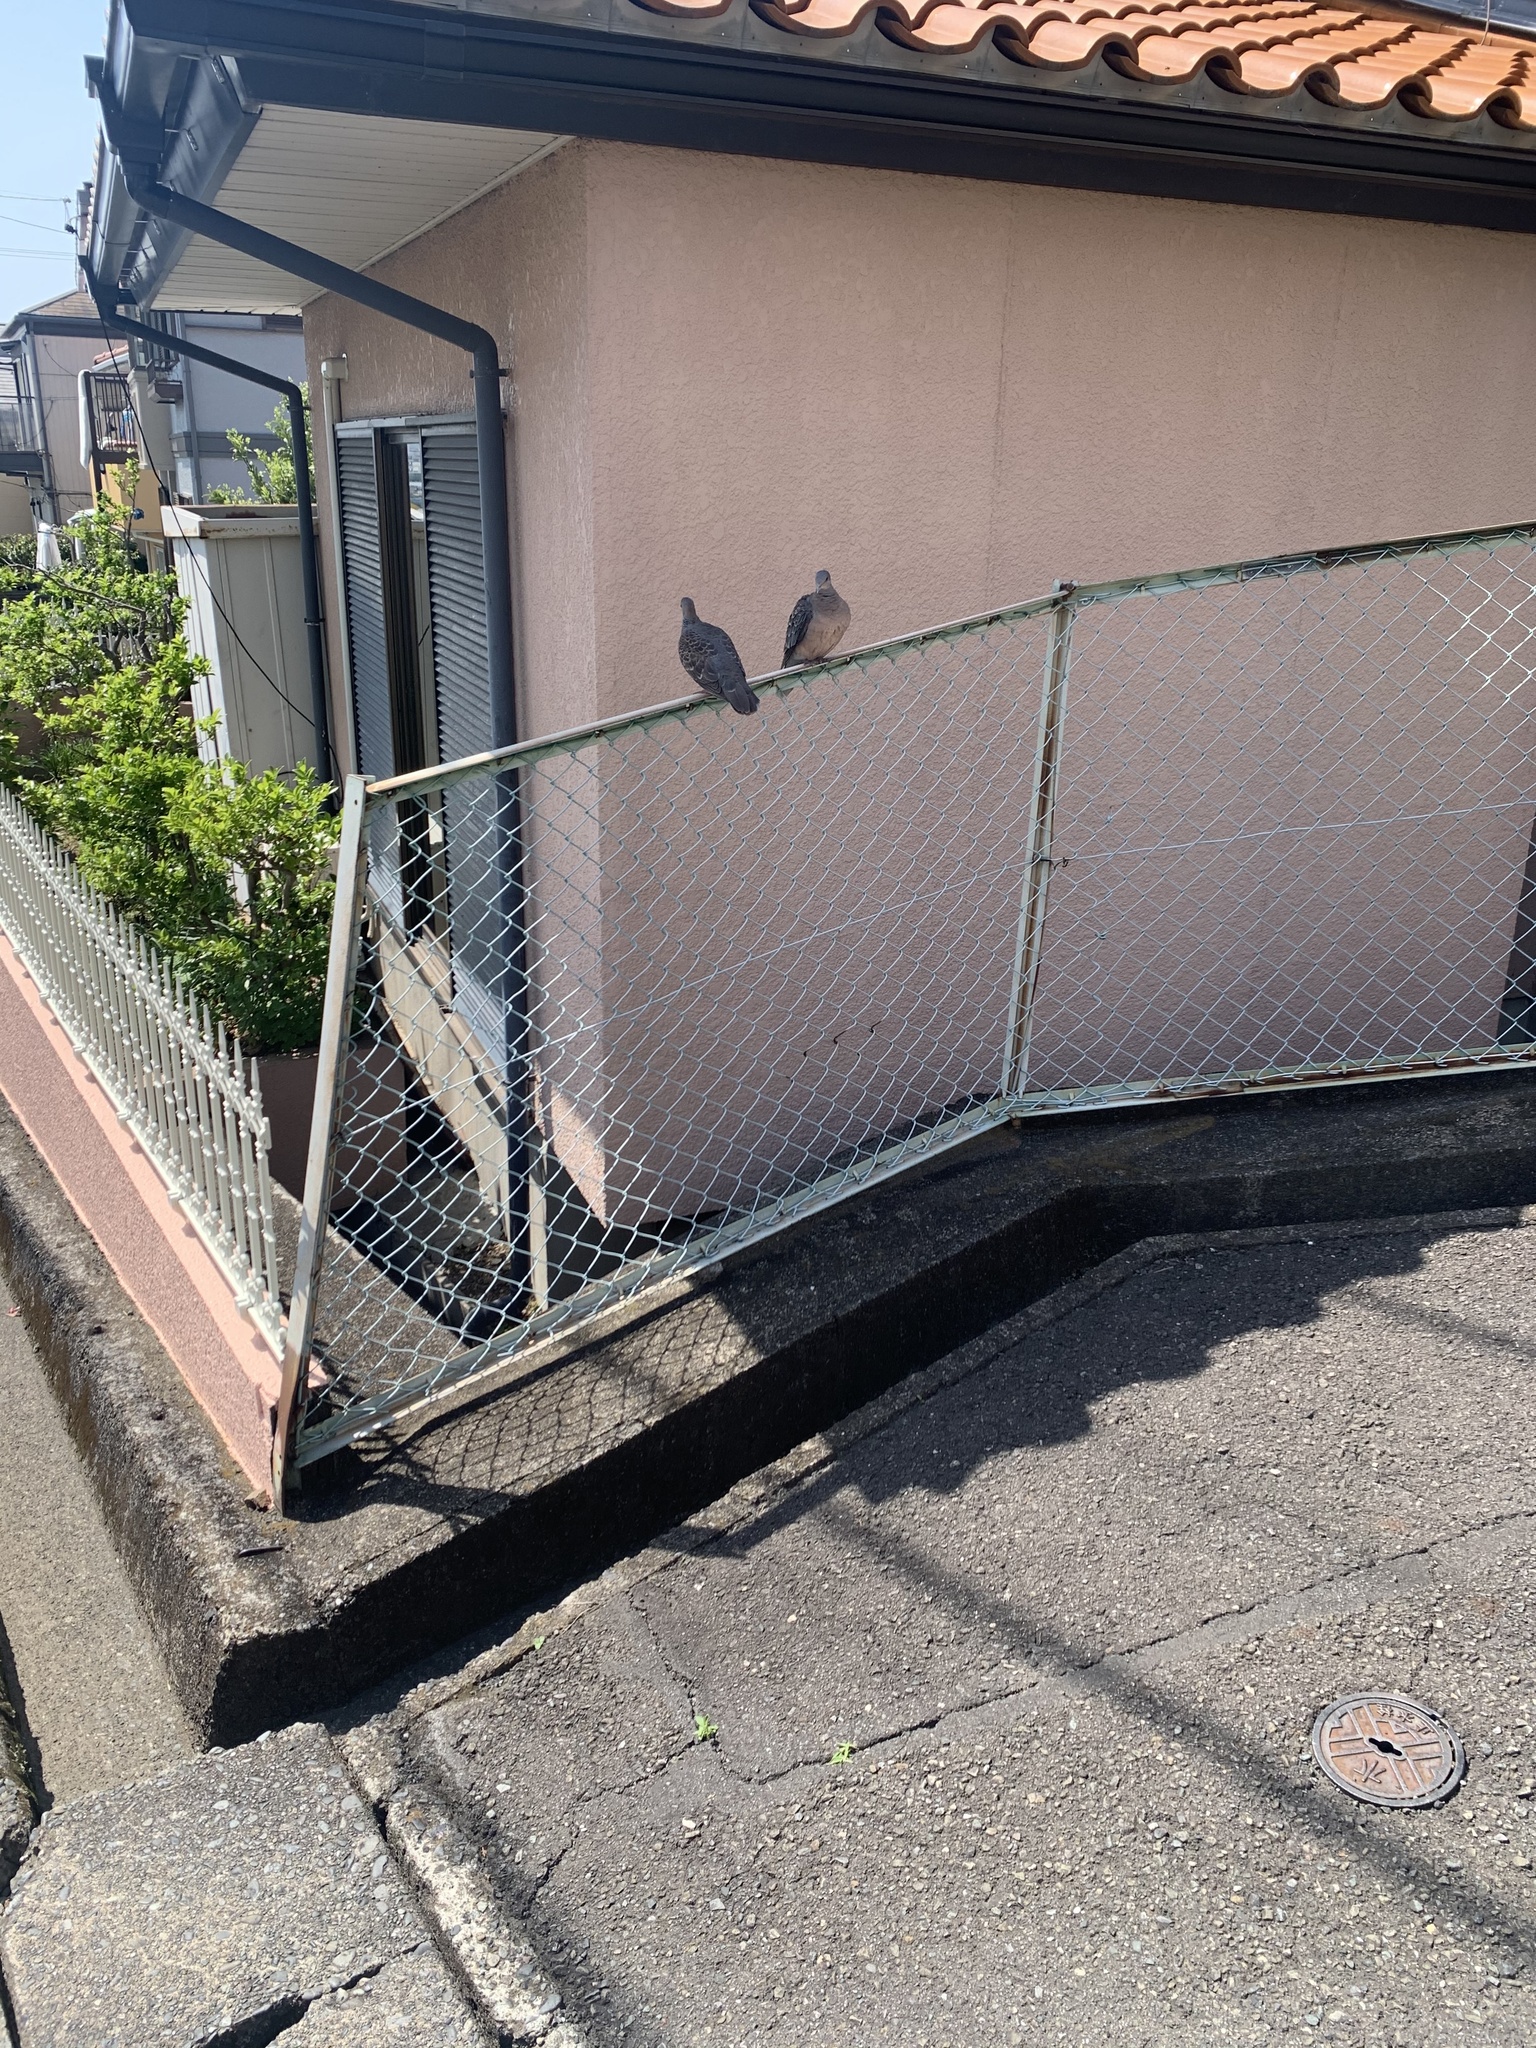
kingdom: Animalia
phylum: Chordata
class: Aves
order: Columbiformes
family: Columbidae
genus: Streptopelia
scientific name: Streptopelia orientalis
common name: Oriental turtle dove
